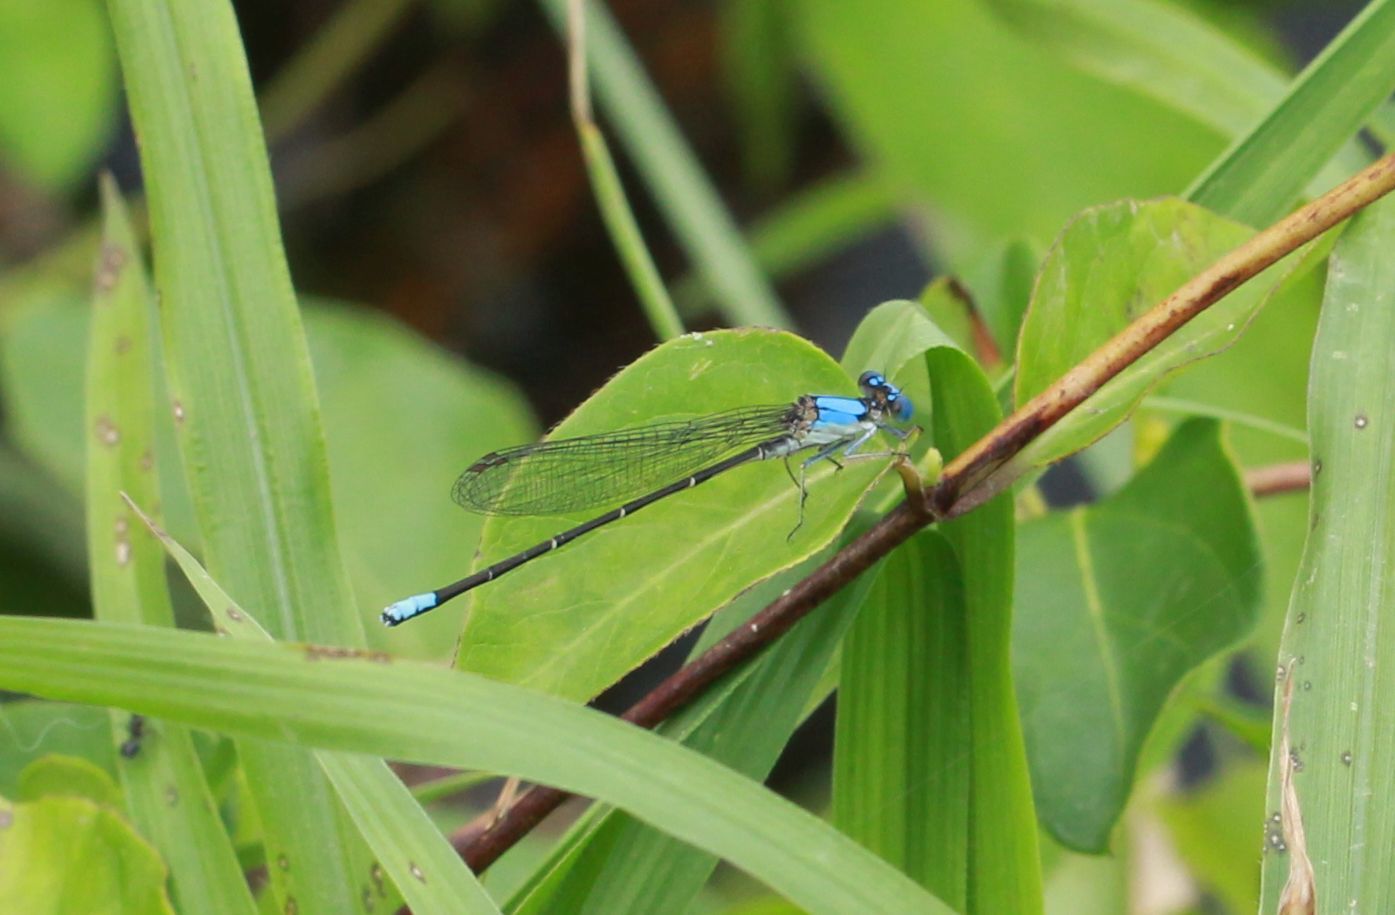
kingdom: Animalia
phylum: Arthropoda
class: Insecta
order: Odonata
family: Coenagrionidae
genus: Argia
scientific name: Argia apicalis
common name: Blue-fronted dancer
